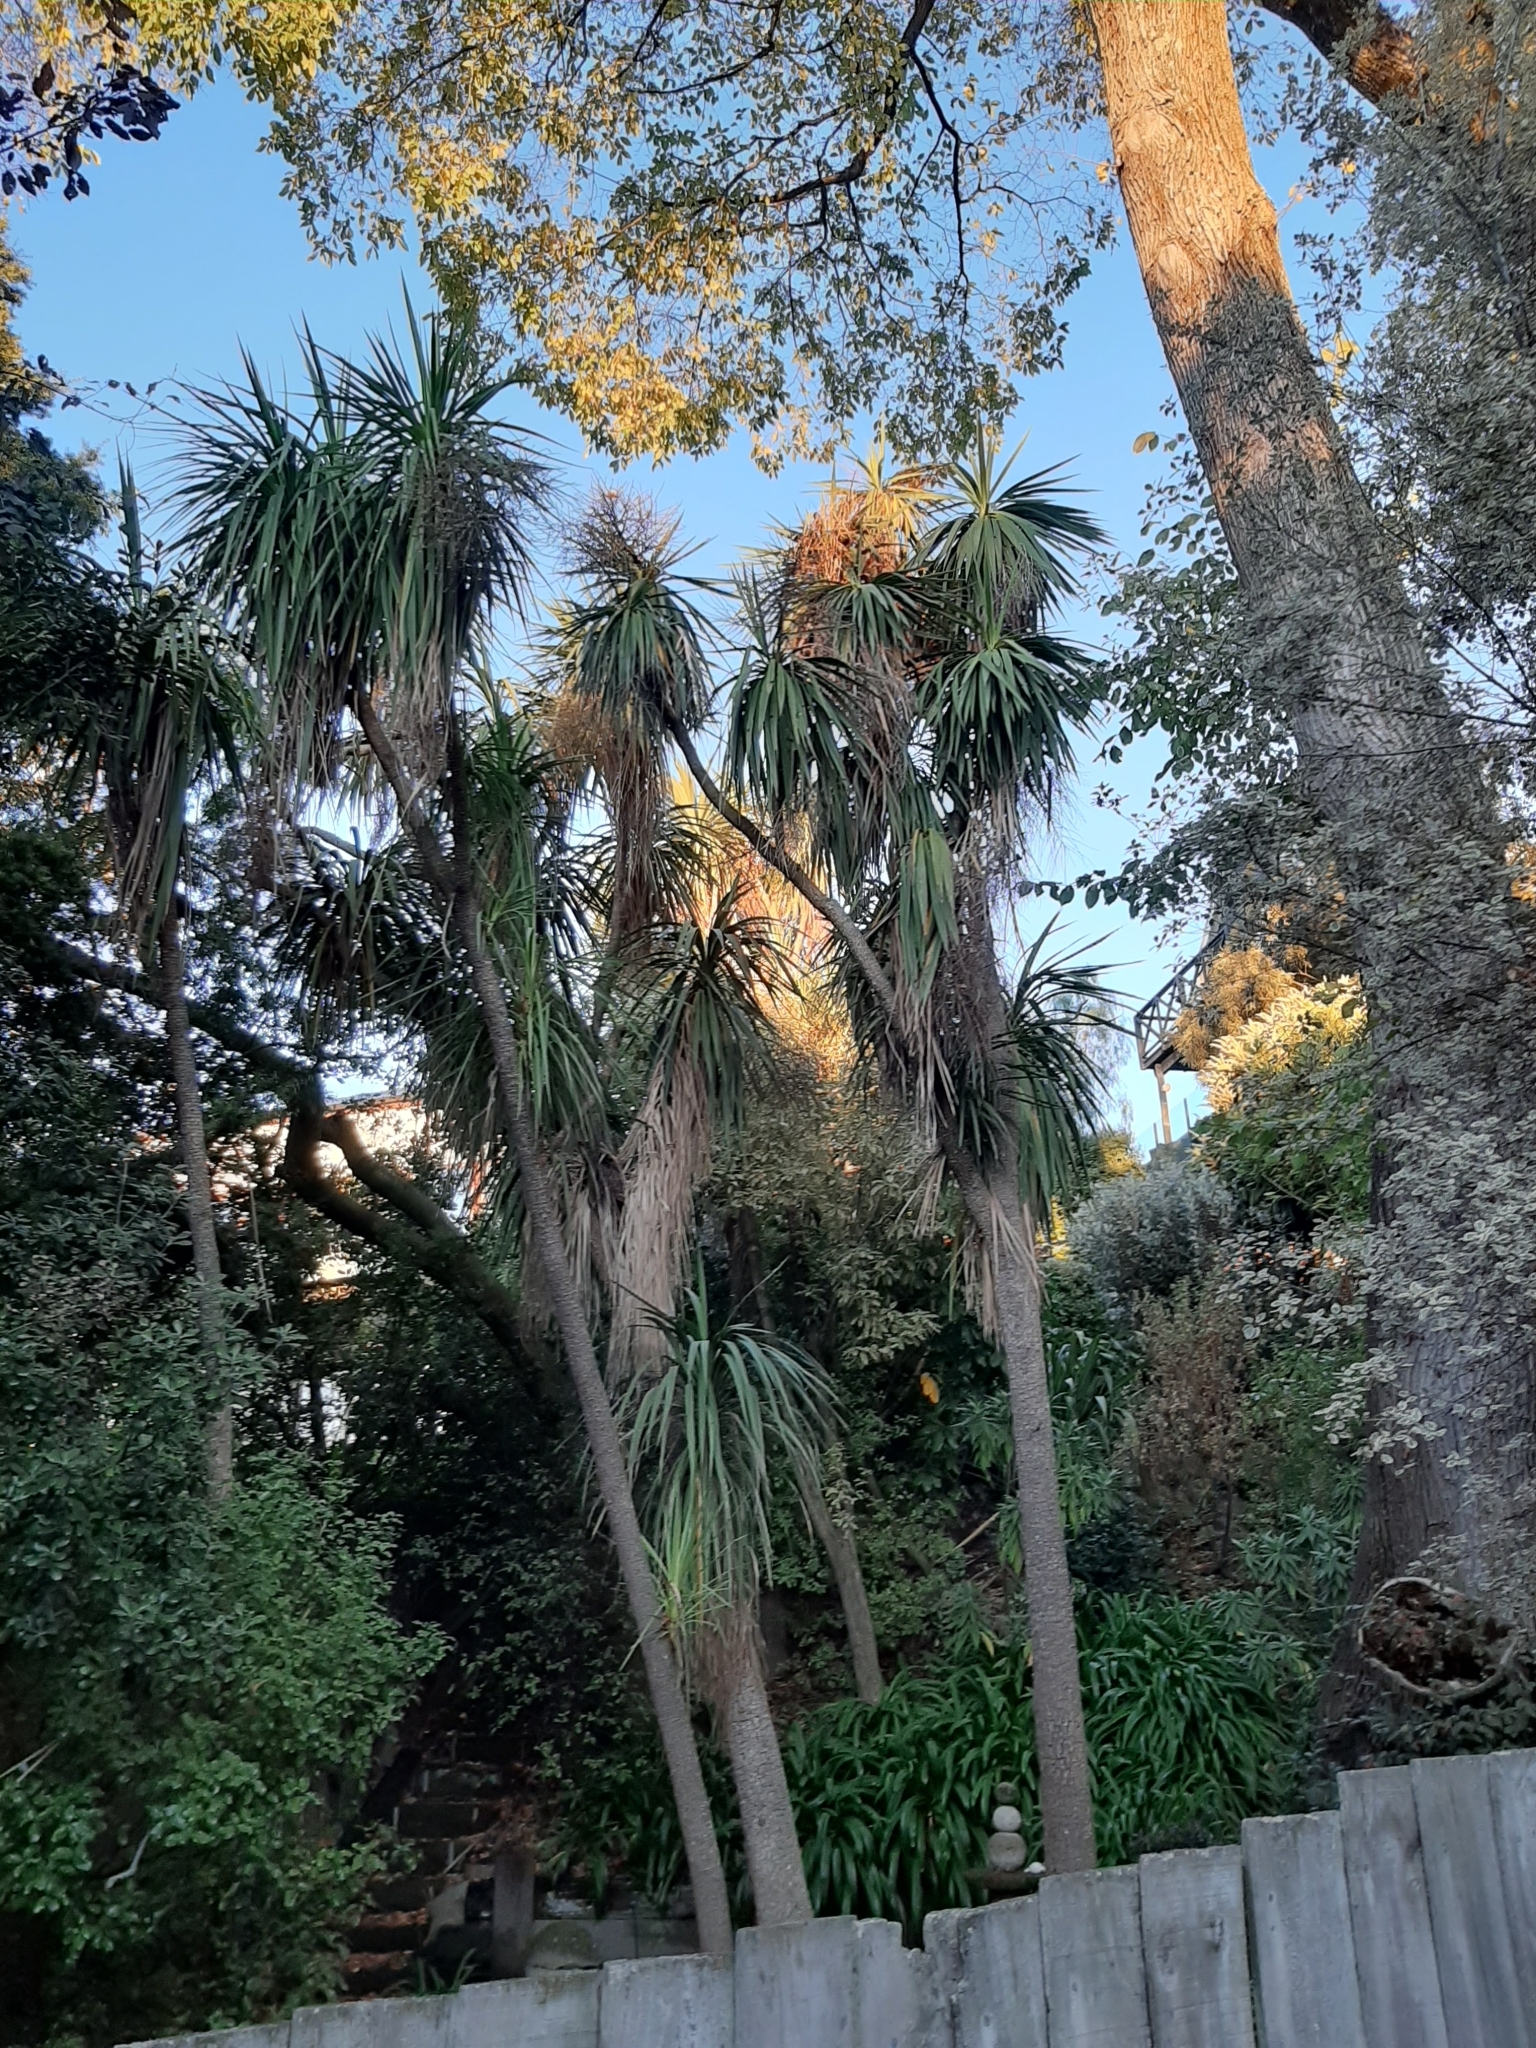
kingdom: Plantae
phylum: Tracheophyta
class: Liliopsida
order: Asparagales
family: Asparagaceae
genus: Cordyline
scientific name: Cordyline australis
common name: Cabbage-palm
